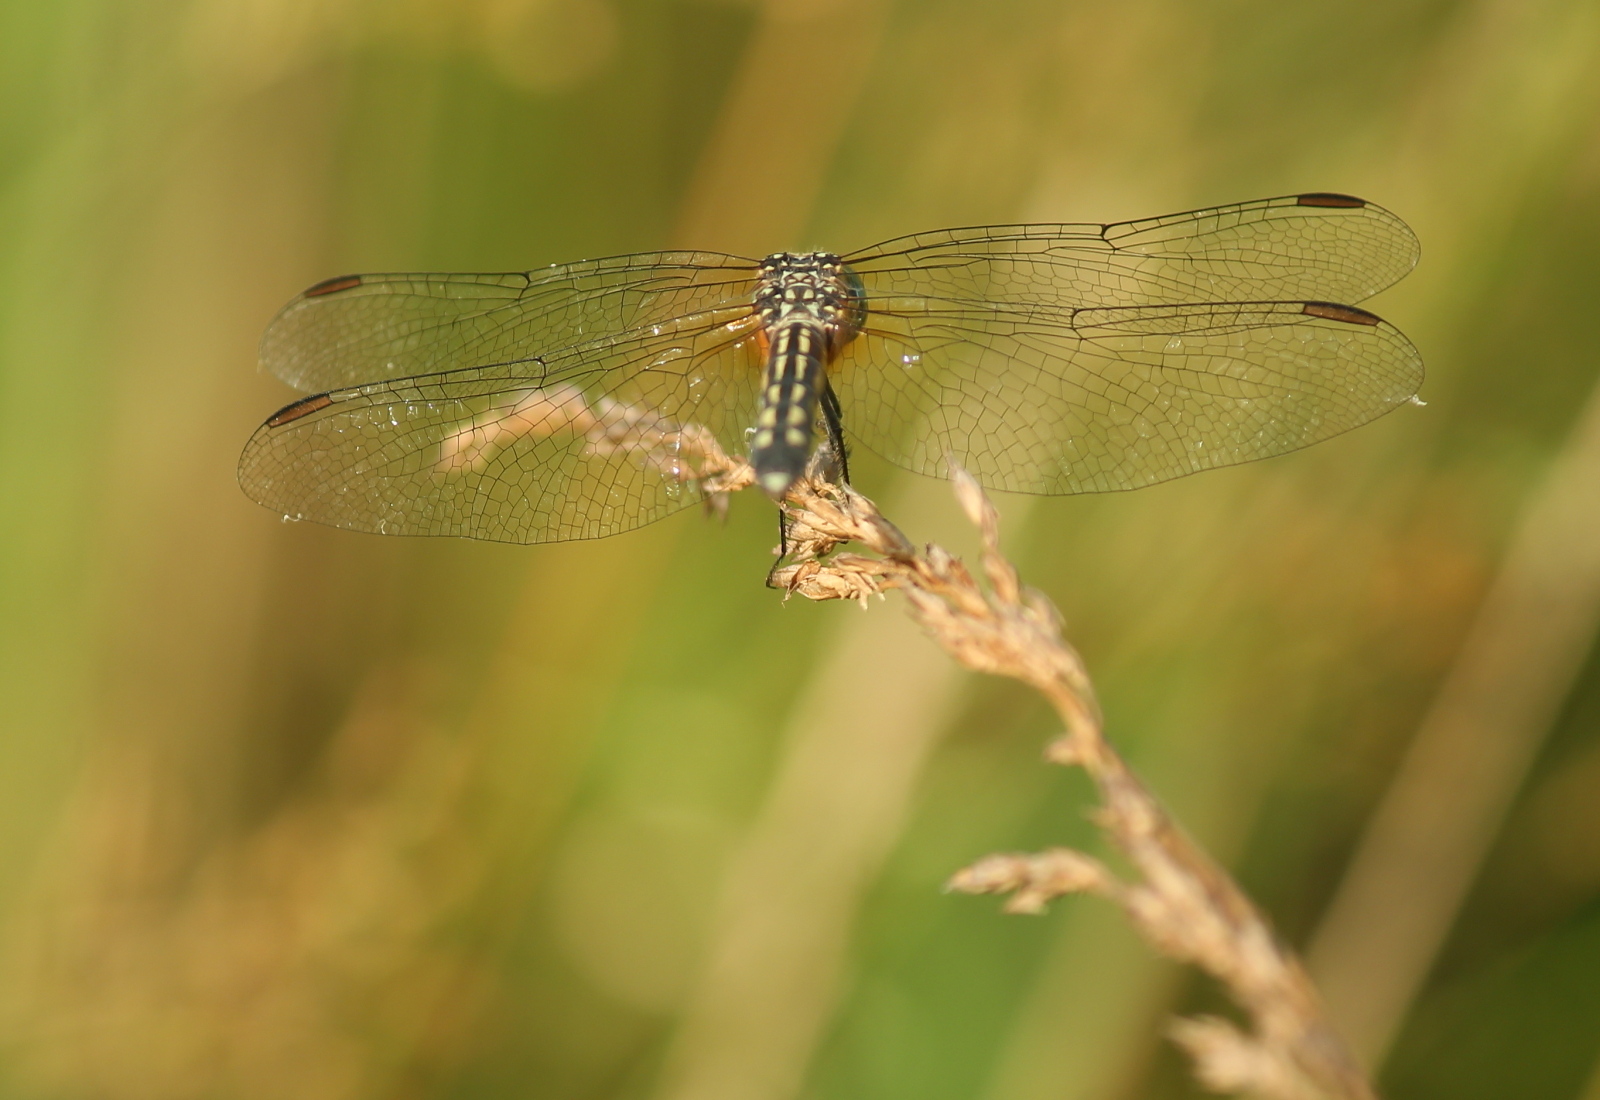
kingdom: Animalia
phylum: Arthropoda
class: Insecta
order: Odonata
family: Libellulidae
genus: Pachydiplax
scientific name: Pachydiplax longipennis
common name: Blue dasher
